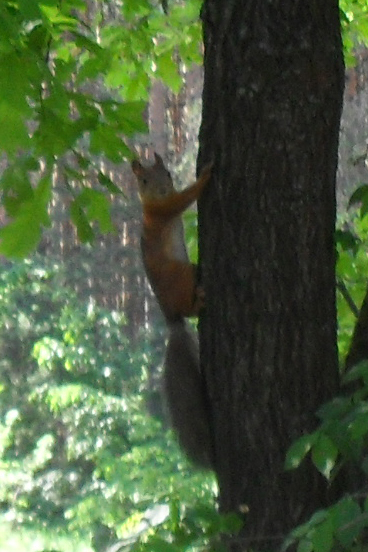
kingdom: Animalia
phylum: Chordata
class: Mammalia
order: Rodentia
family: Sciuridae
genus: Sciurus
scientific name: Sciurus vulgaris
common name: Eurasian red squirrel
